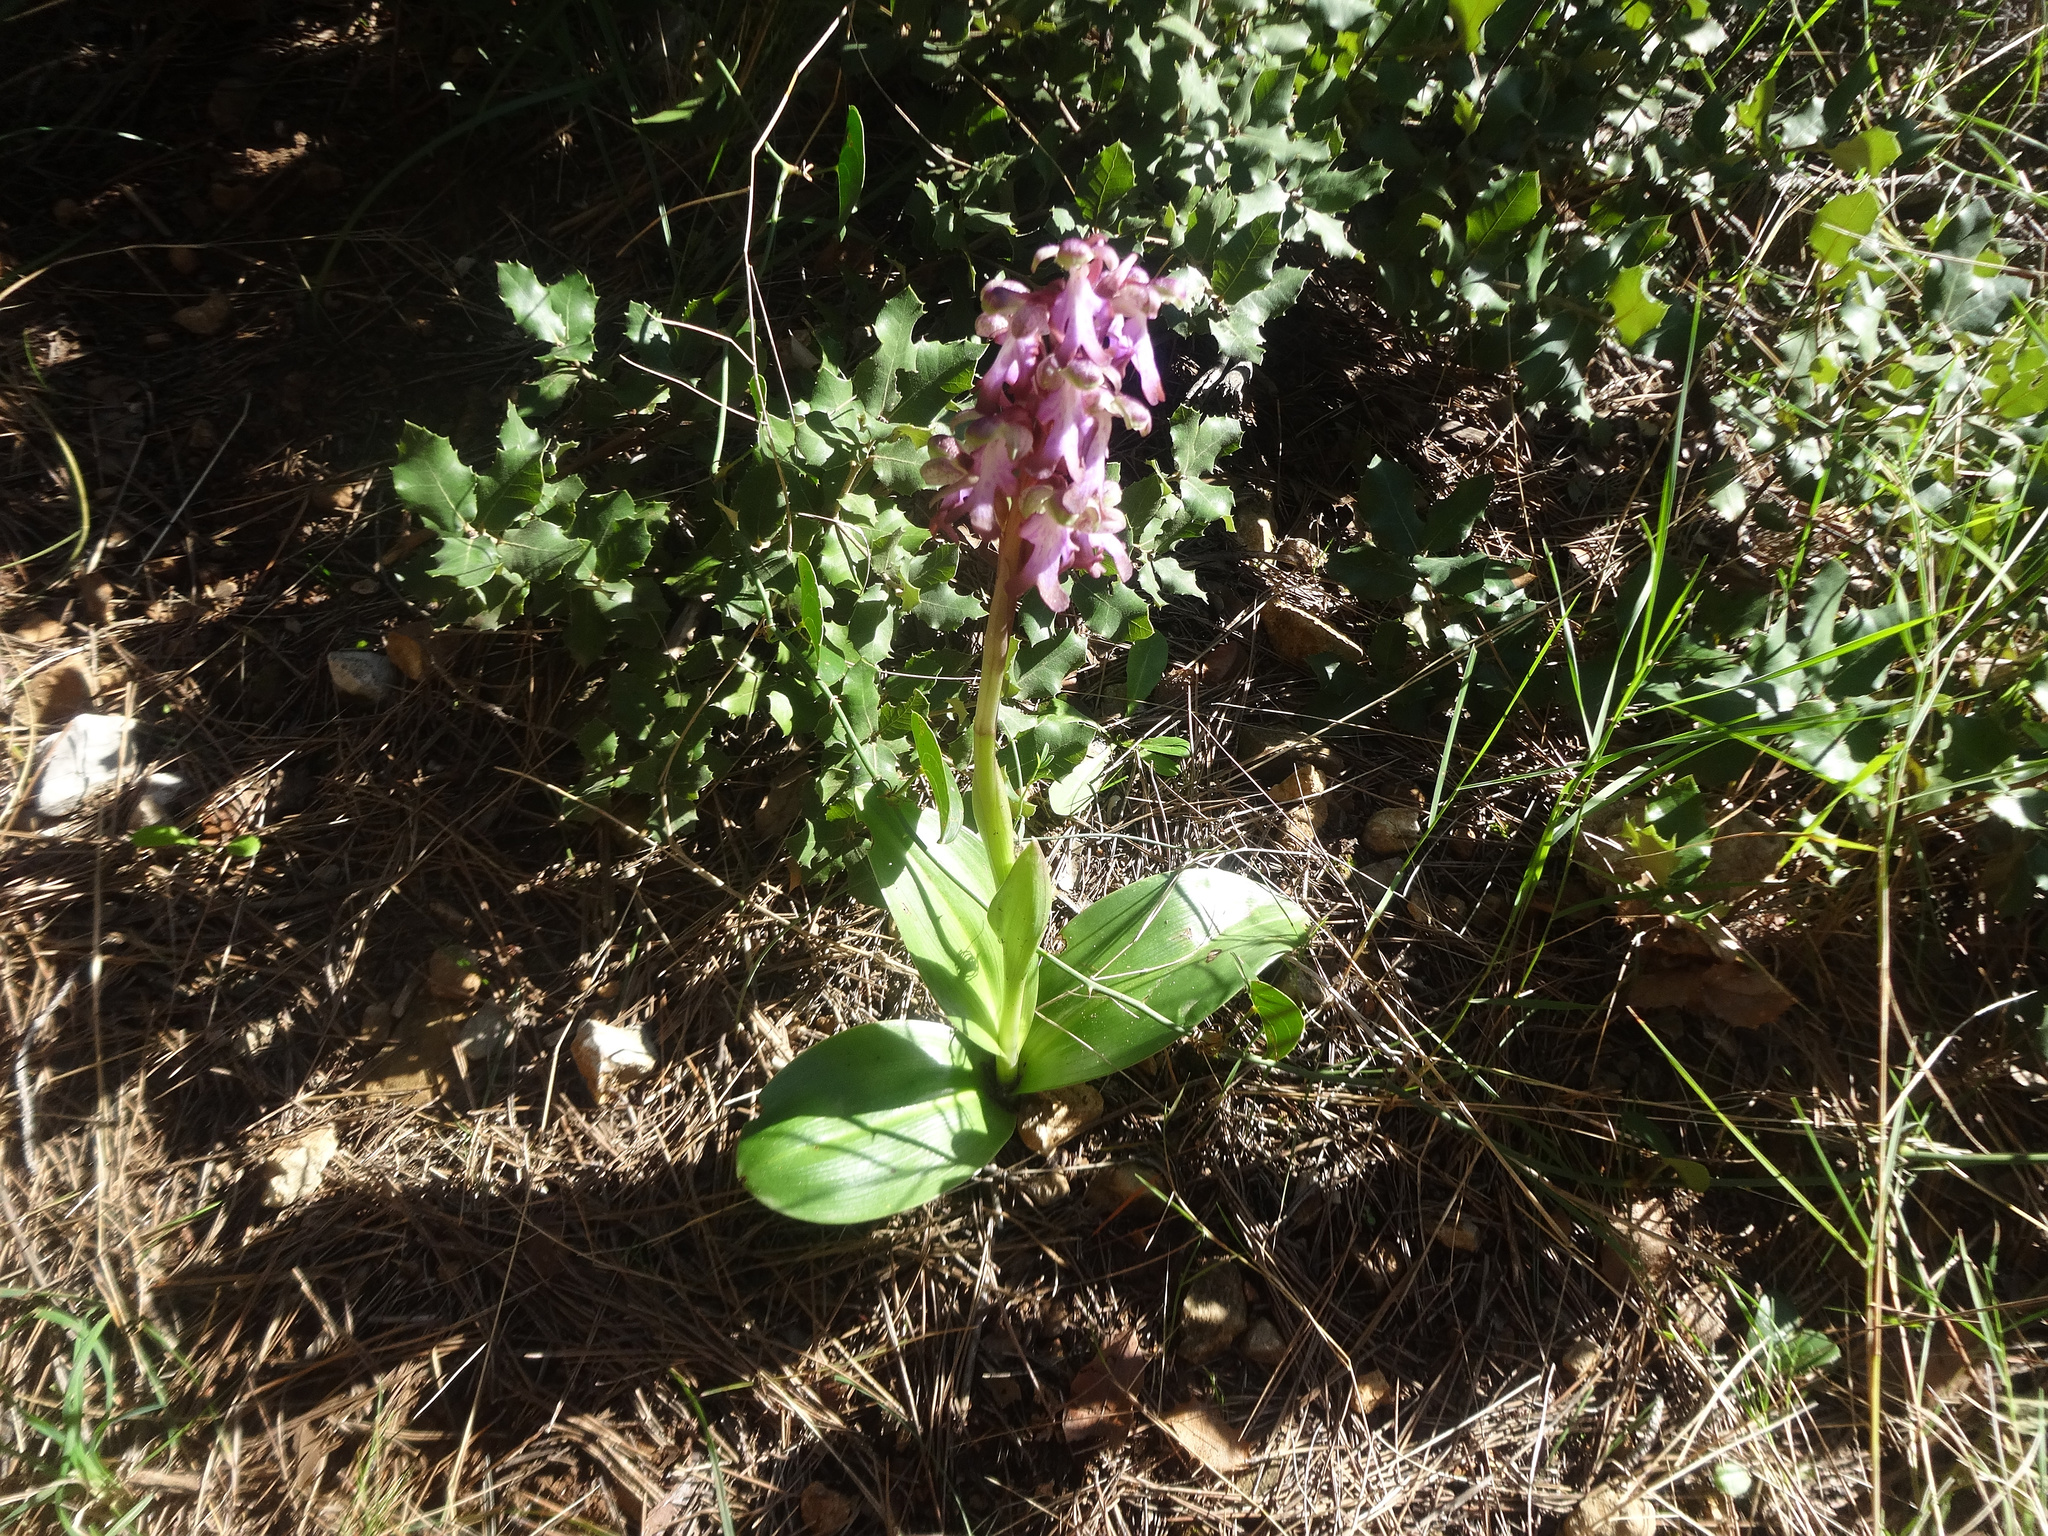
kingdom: Plantae
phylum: Tracheophyta
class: Liliopsida
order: Asparagales
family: Orchidaceae
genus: Himantoglossum
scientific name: Himantoglossum robertianum
